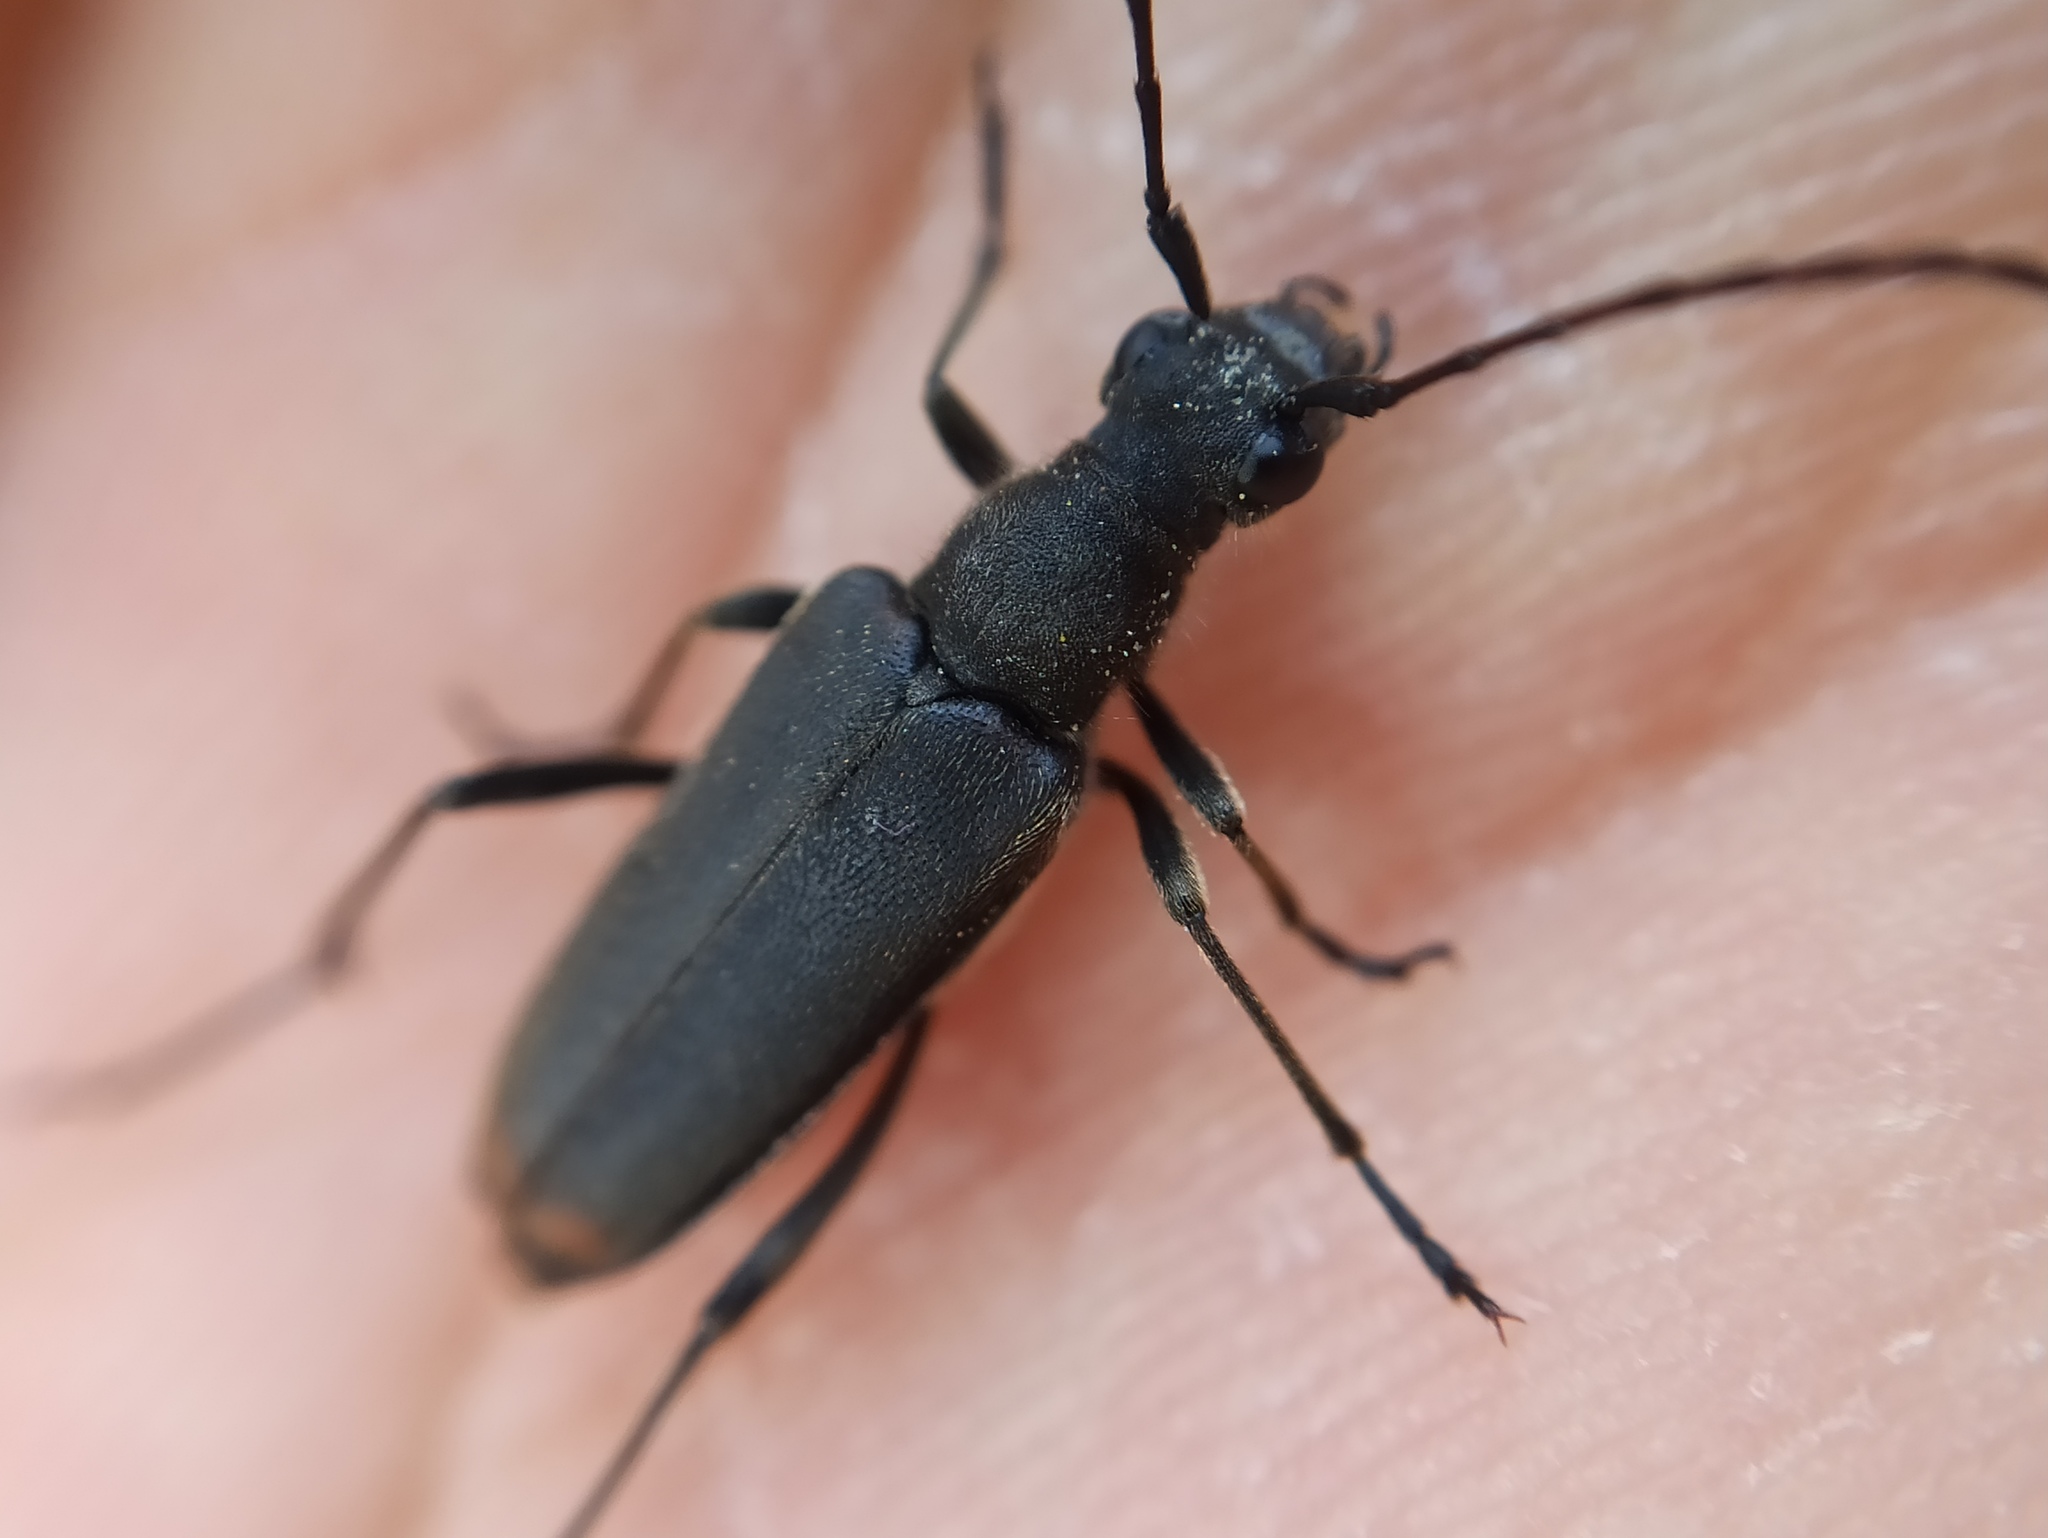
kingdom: Animalia
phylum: Arthropoda
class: Insecta
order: Coleoptera
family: Cerambycidae
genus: Anastrangalia
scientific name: Anastrangalia dubia
